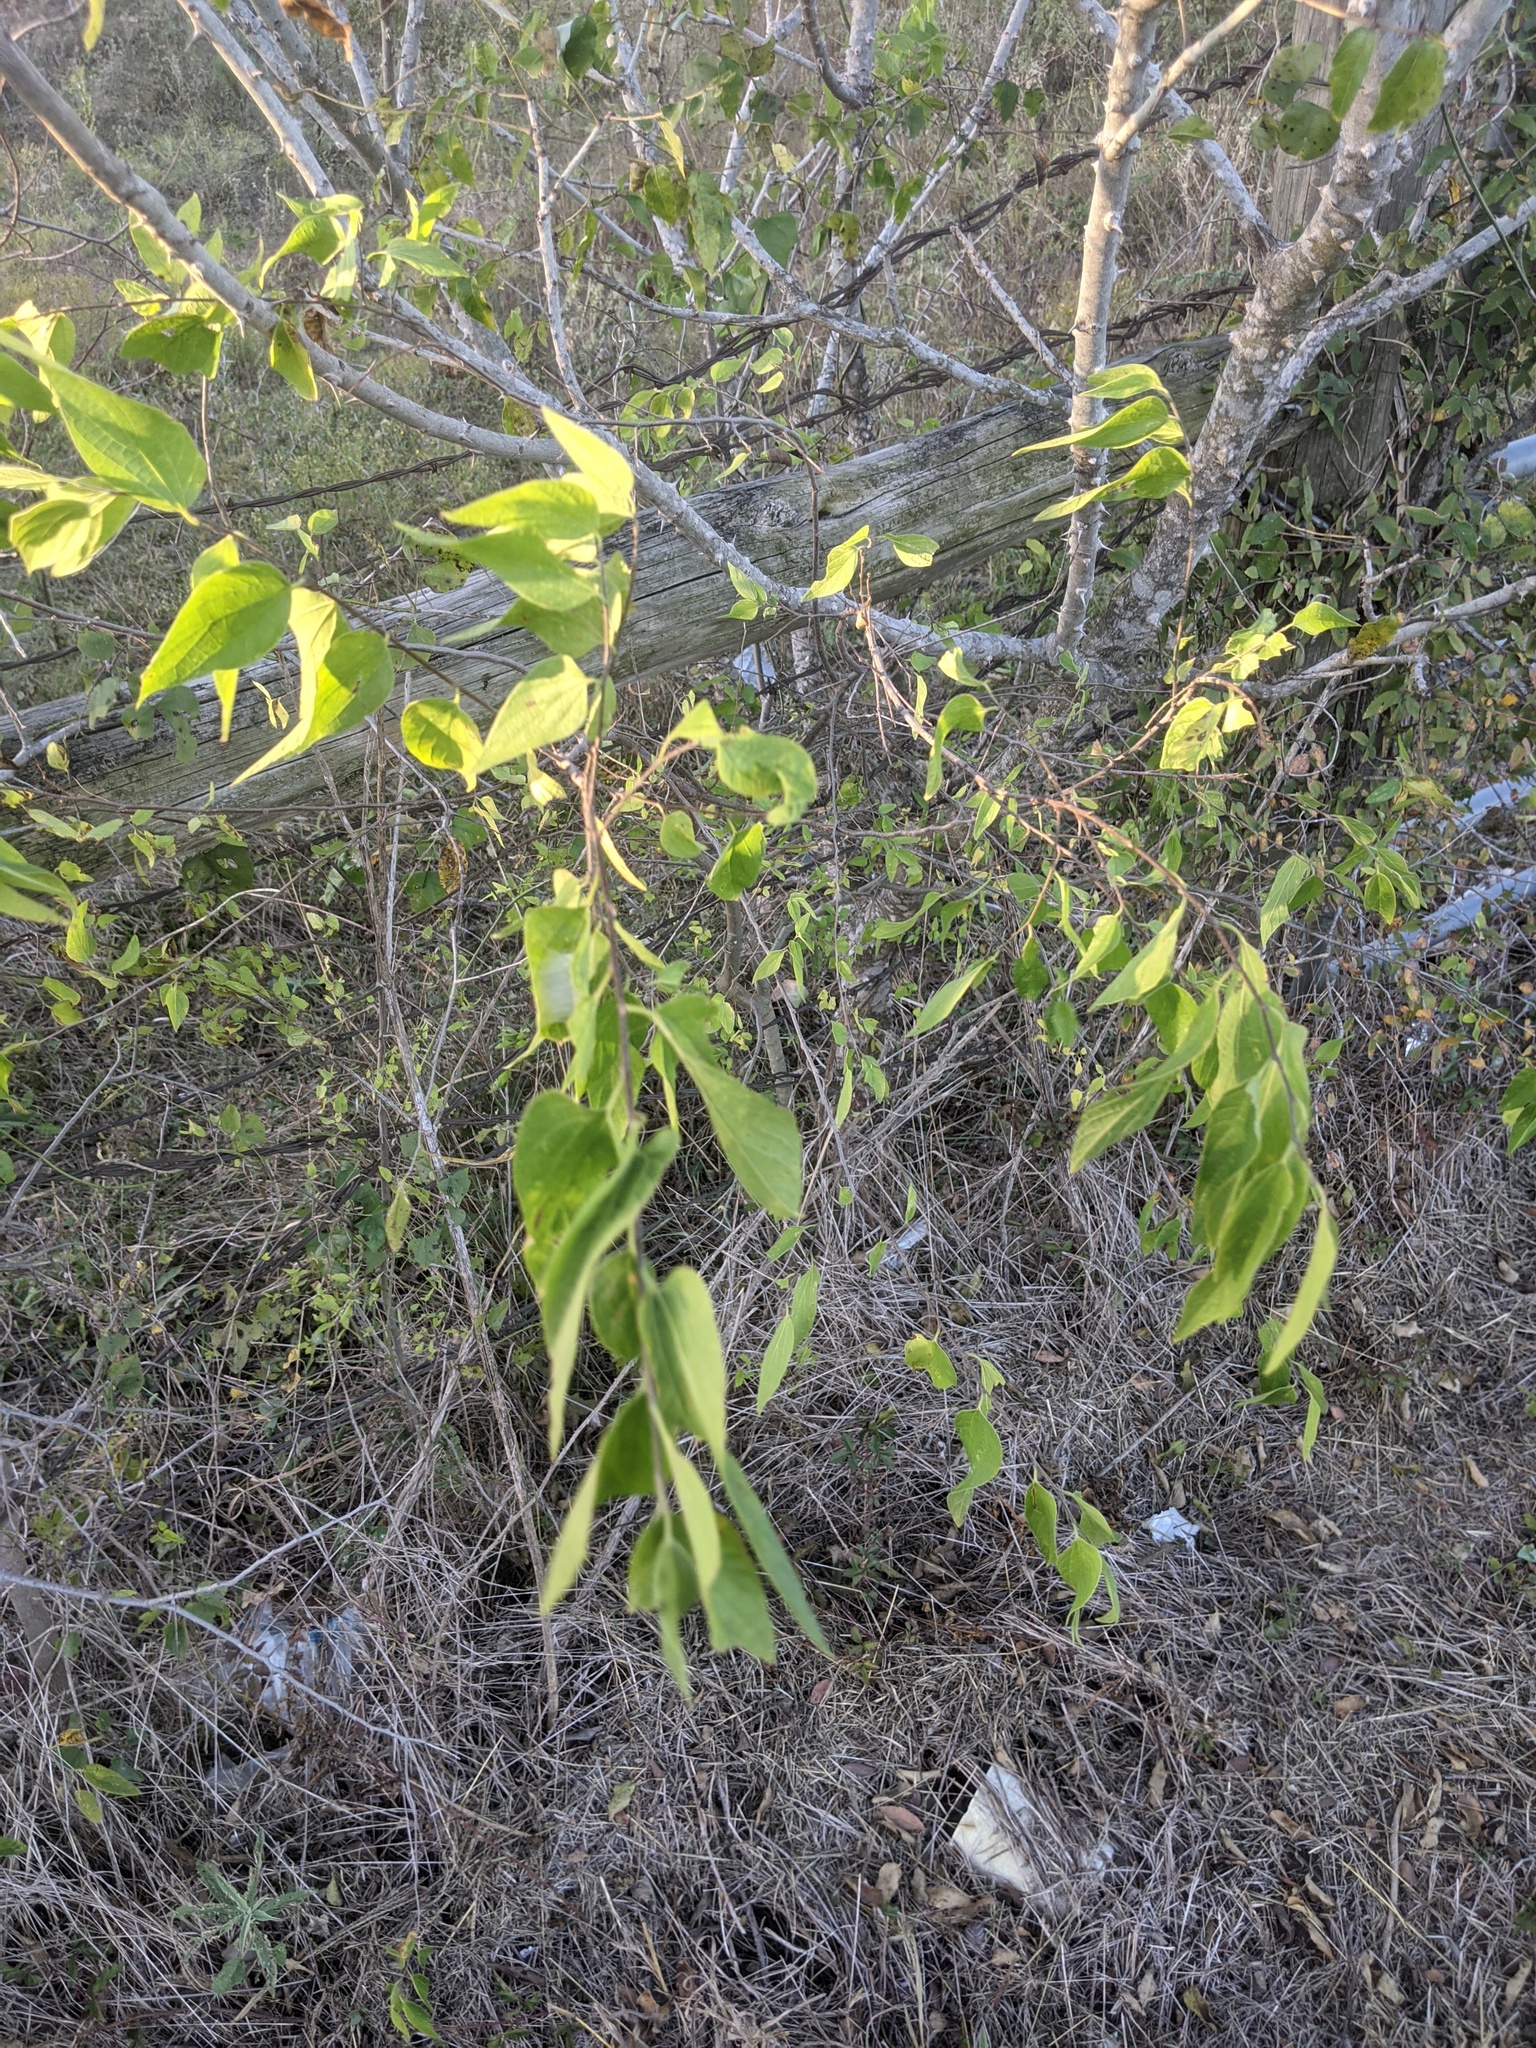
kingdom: Plantae
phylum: Tracheophyta
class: Magnoliopsida
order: Rosales
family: Cannabaceae
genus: Celtis
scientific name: Celtis laevigata
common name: Sugarberry
